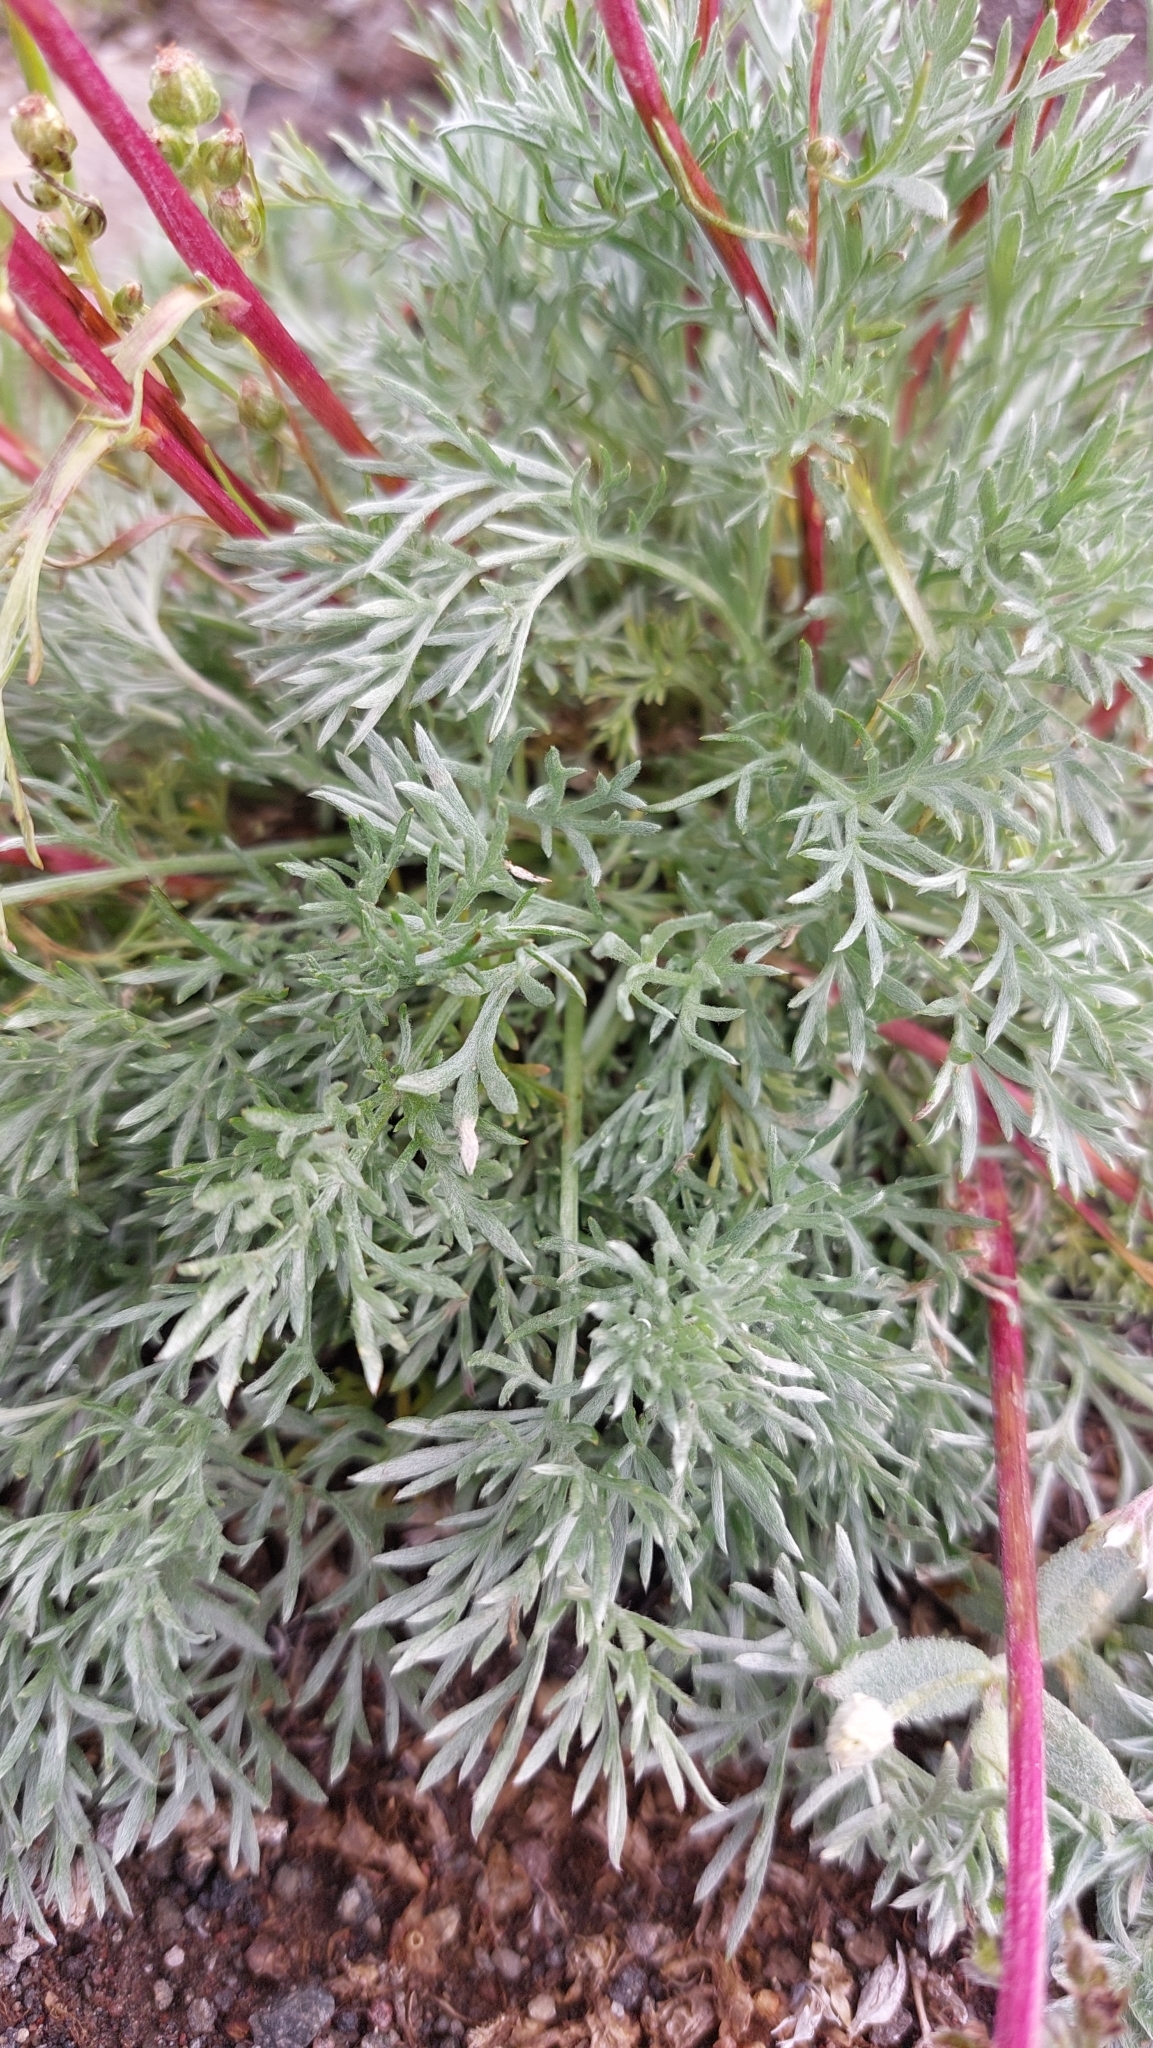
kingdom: Plantae
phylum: Tracheophyta
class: Magnoliopsida
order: Asterales
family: Asteraceae
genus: Artemisia
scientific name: Artemisia borealis
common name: Boreal sage
